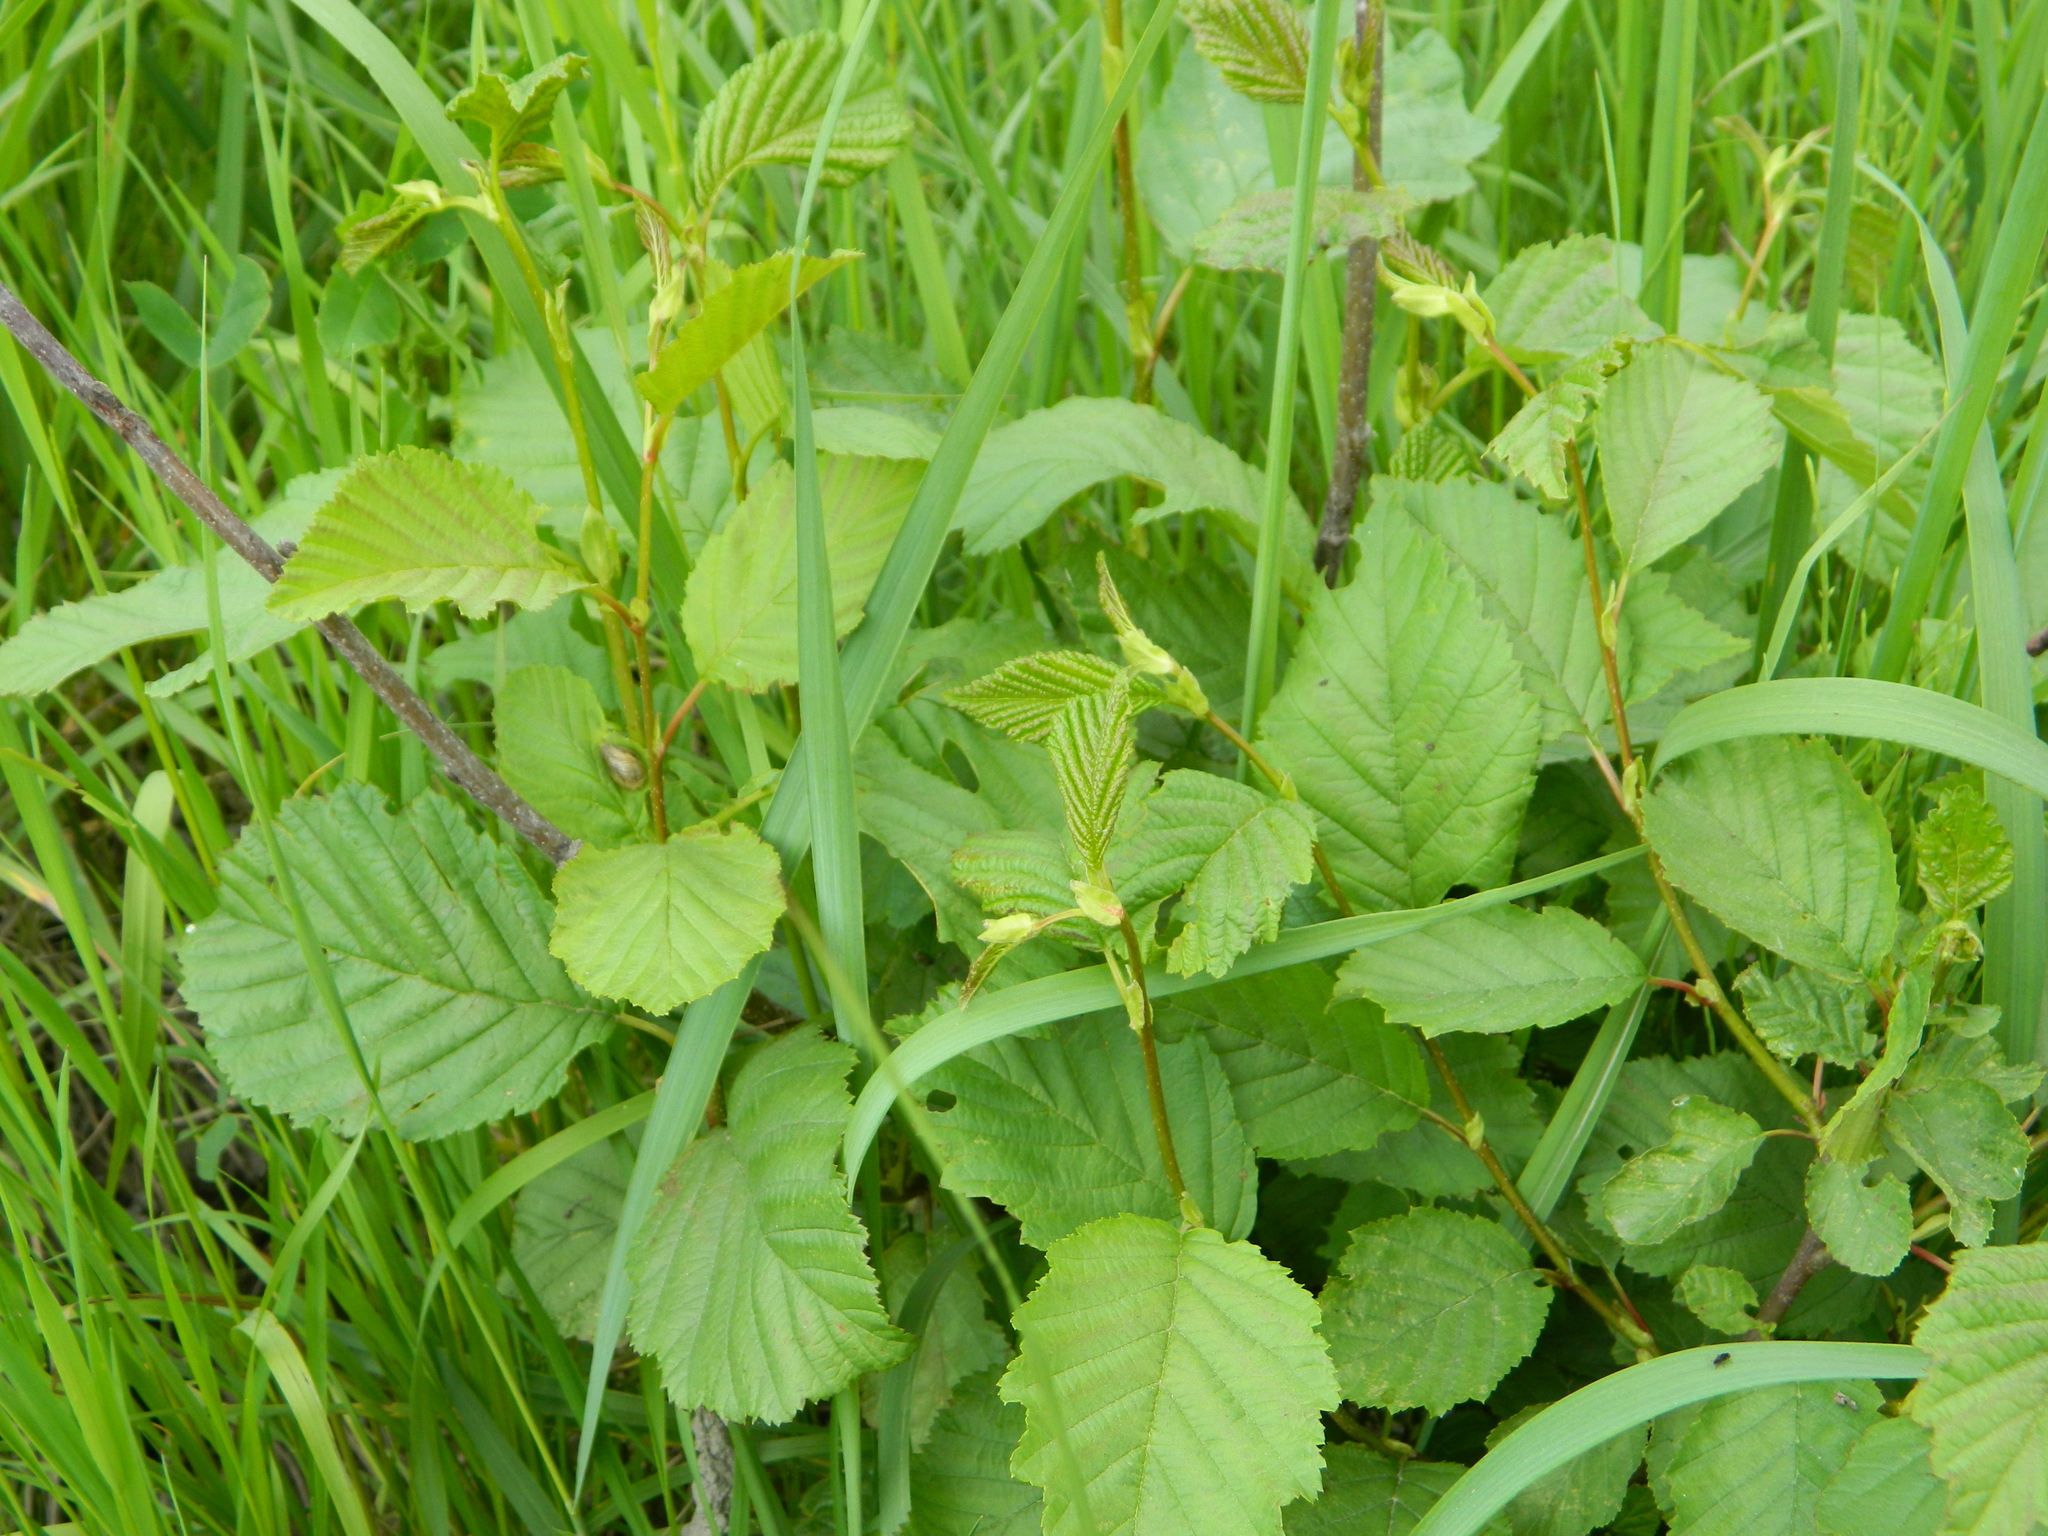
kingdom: Plantae
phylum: Tracheophyta
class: Magnoliopsida
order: Fagales
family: Betulaceae
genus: Alnus
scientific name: Alnus incana
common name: Grey alder
